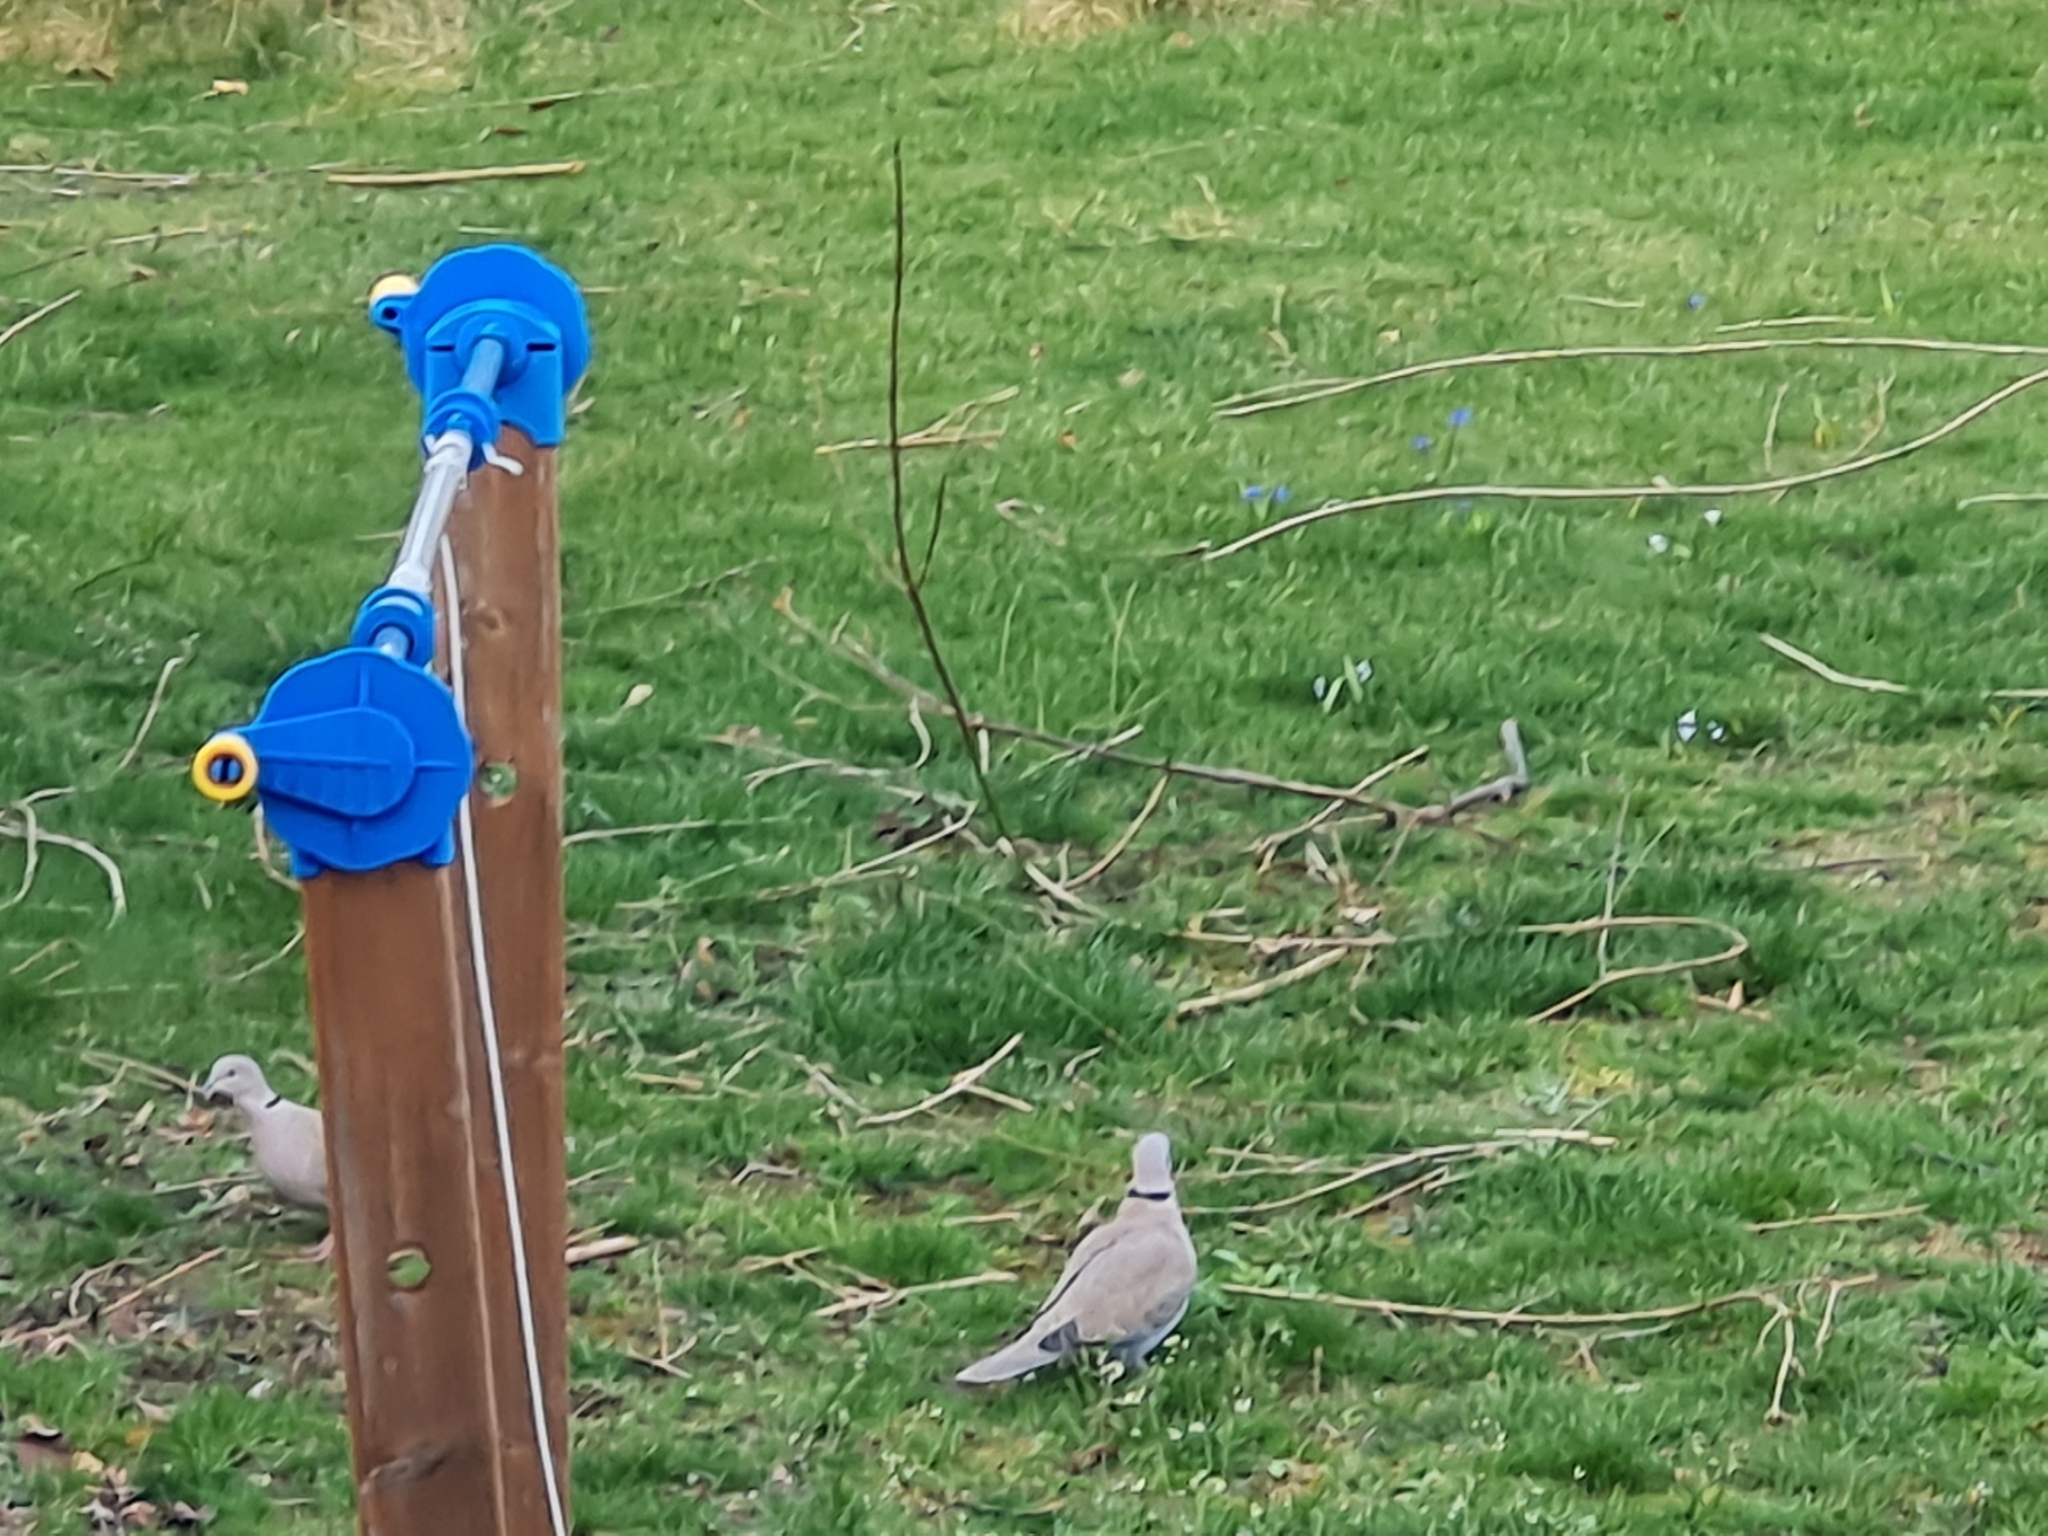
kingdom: Animalia
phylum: Chordata
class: Aves
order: Columbiformes
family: Columbidae
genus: Streptopelia
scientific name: Streptopelia decaocto
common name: Eurasian collared dove
